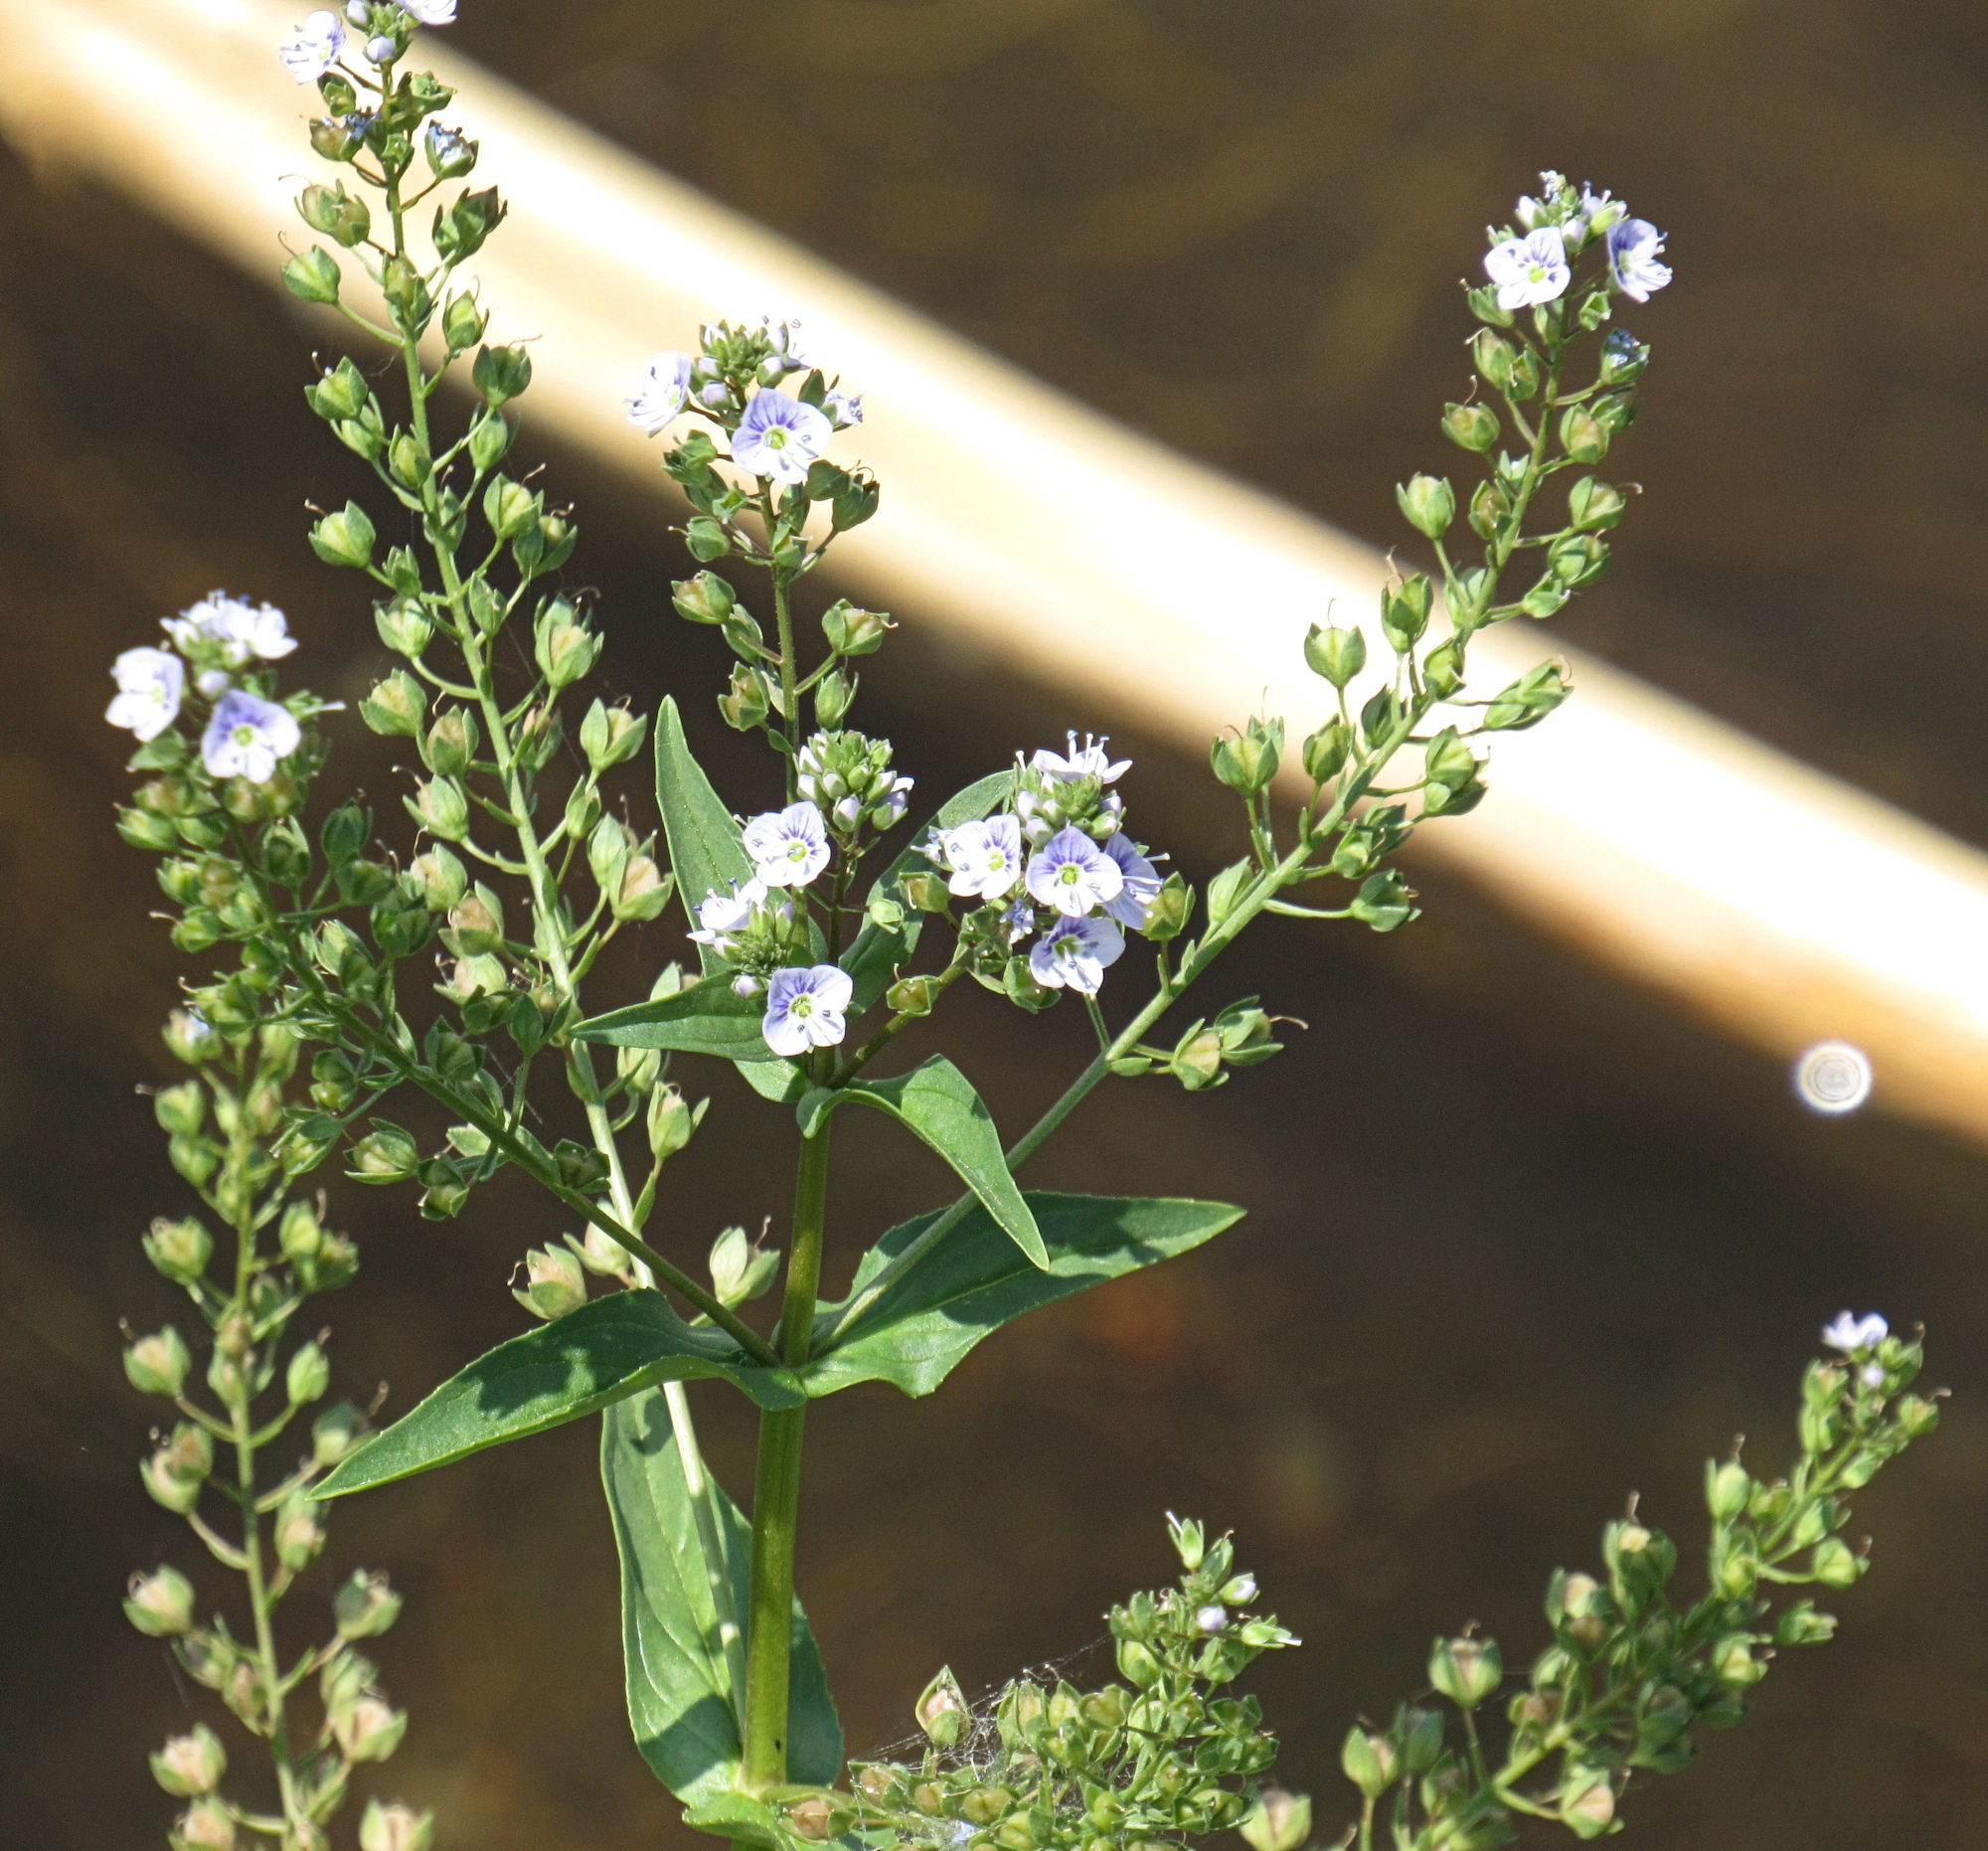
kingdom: Plantae
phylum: Tracheophyta
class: Magnoliopsida
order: Lamiales
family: Plantaginaceae
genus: Veronica
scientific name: Veronica anagallis-aquatica
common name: Water speedwell
